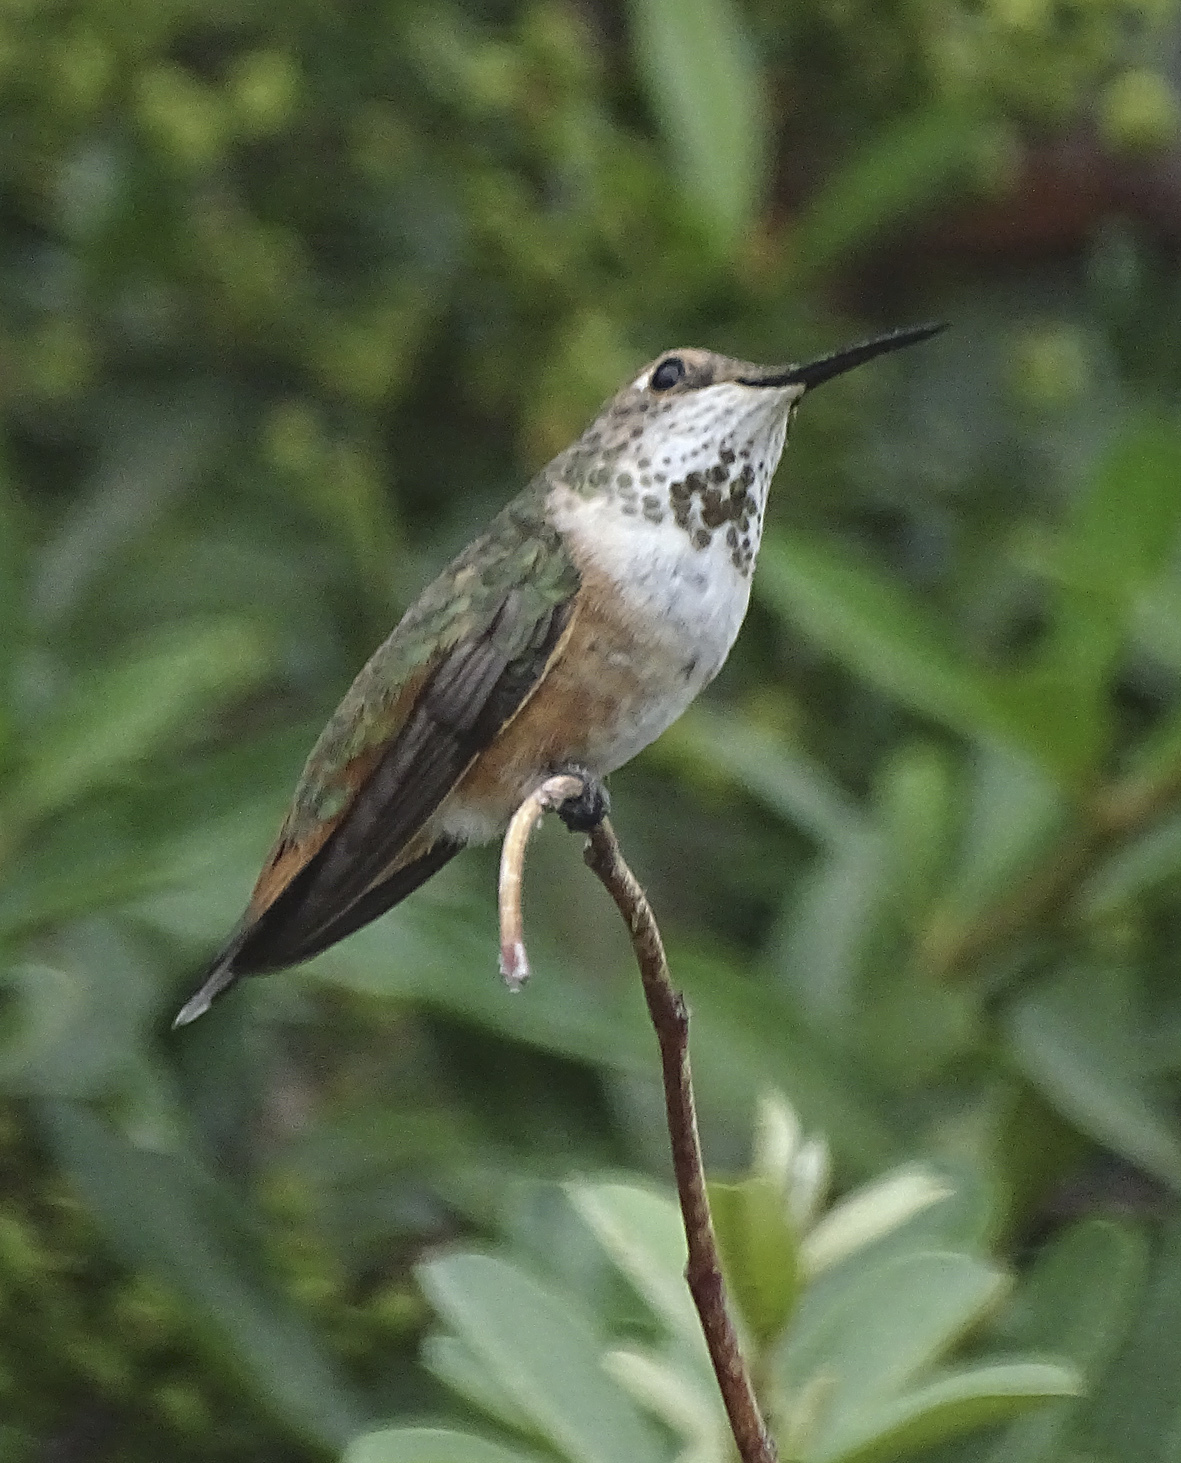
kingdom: Animalia
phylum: Chordata
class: Aves
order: Apodiformes
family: Trochilidae
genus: Selasphorus
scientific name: Selasphorus rufus
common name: Rufous hummingbird
